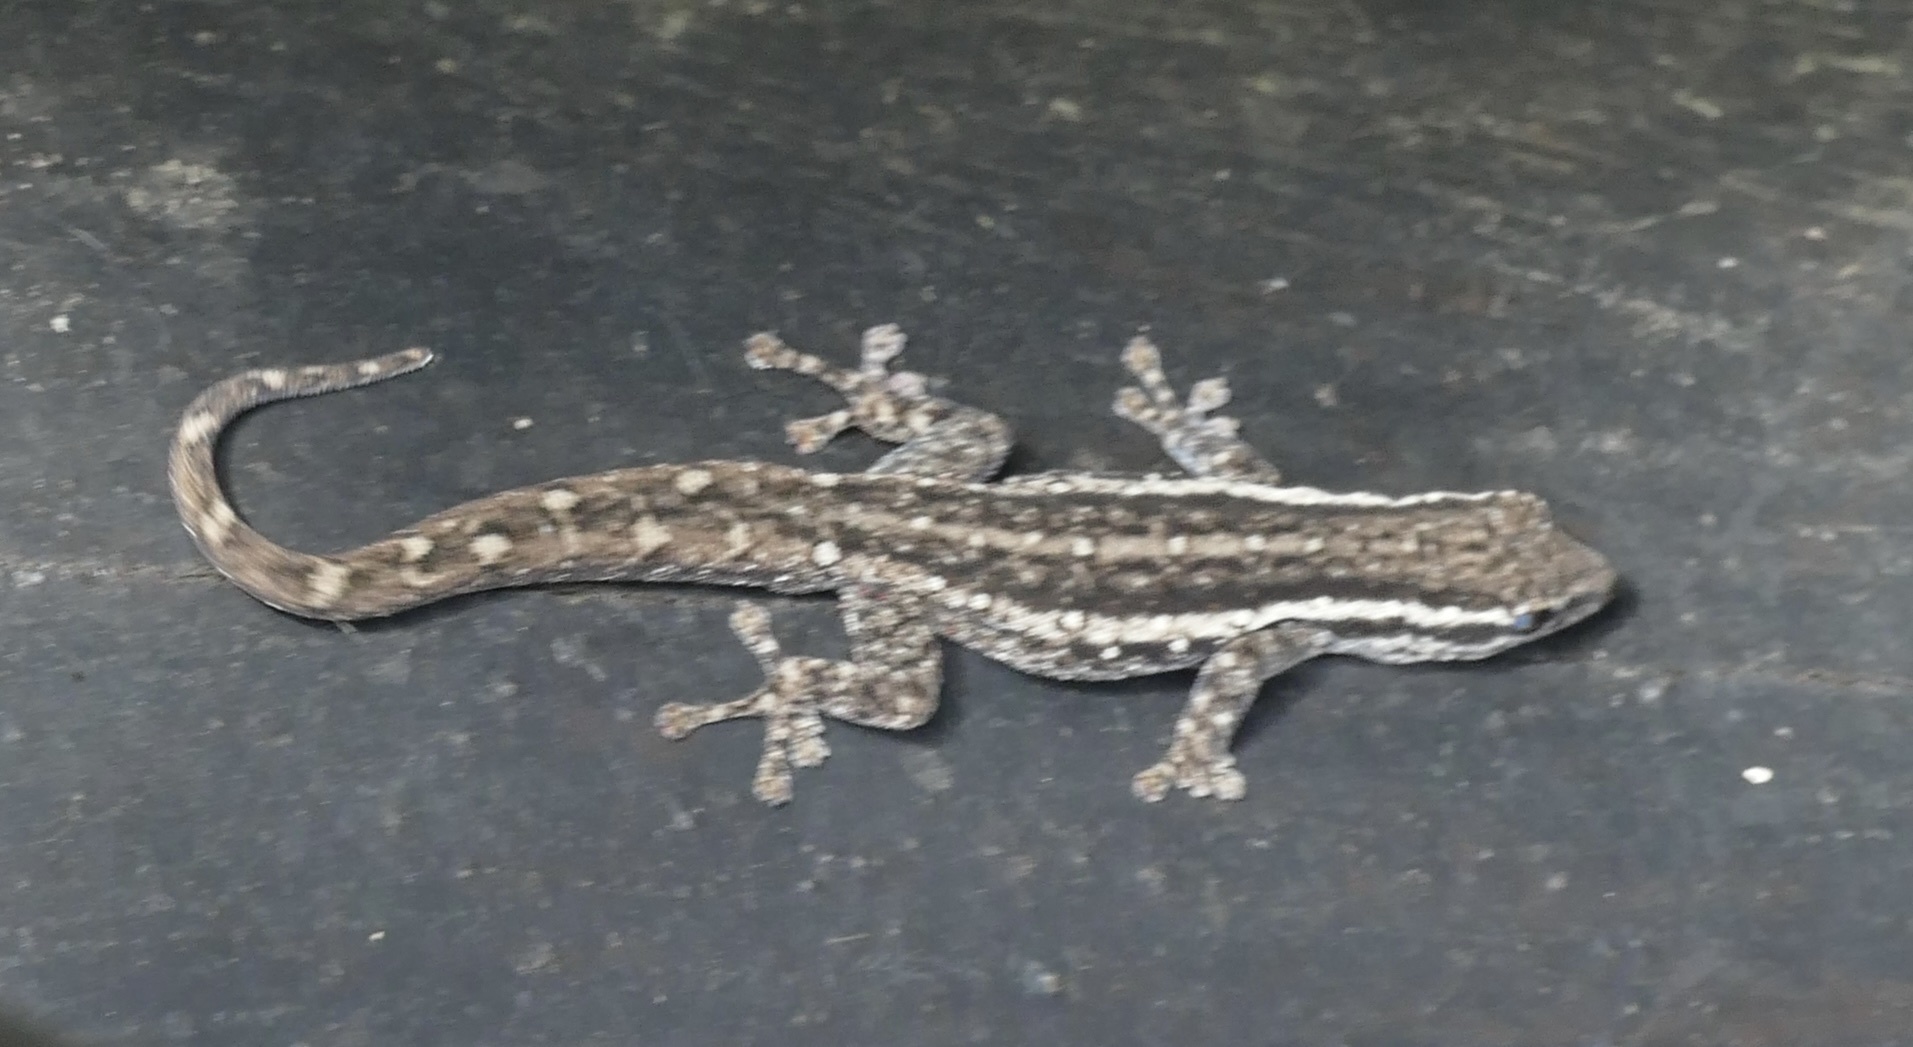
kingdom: Animalia
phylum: Chordata
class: Squamata
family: Gekkonidae
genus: Lygodactylus
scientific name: Lygodactylus capensis
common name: Cape dwarf gecko
